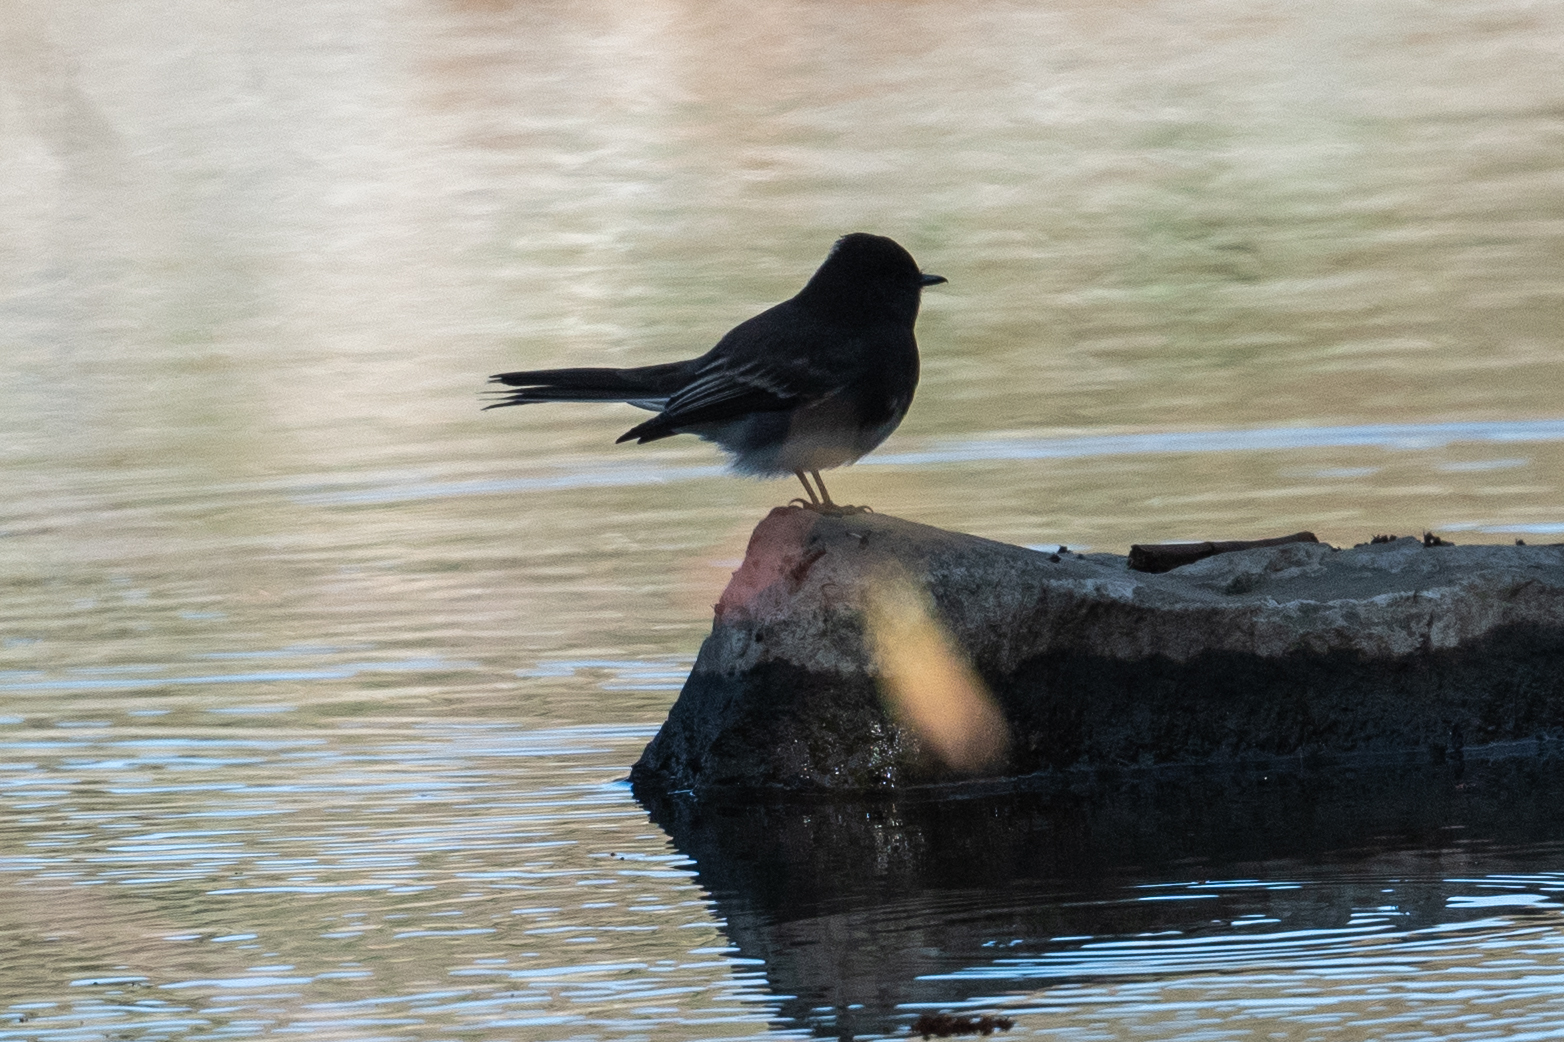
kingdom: Animalia
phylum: Chordata
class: Aves
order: Passeriformes
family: Tyrannidae
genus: Sayornis
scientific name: Sayornis nigricans
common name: Black phoebe
